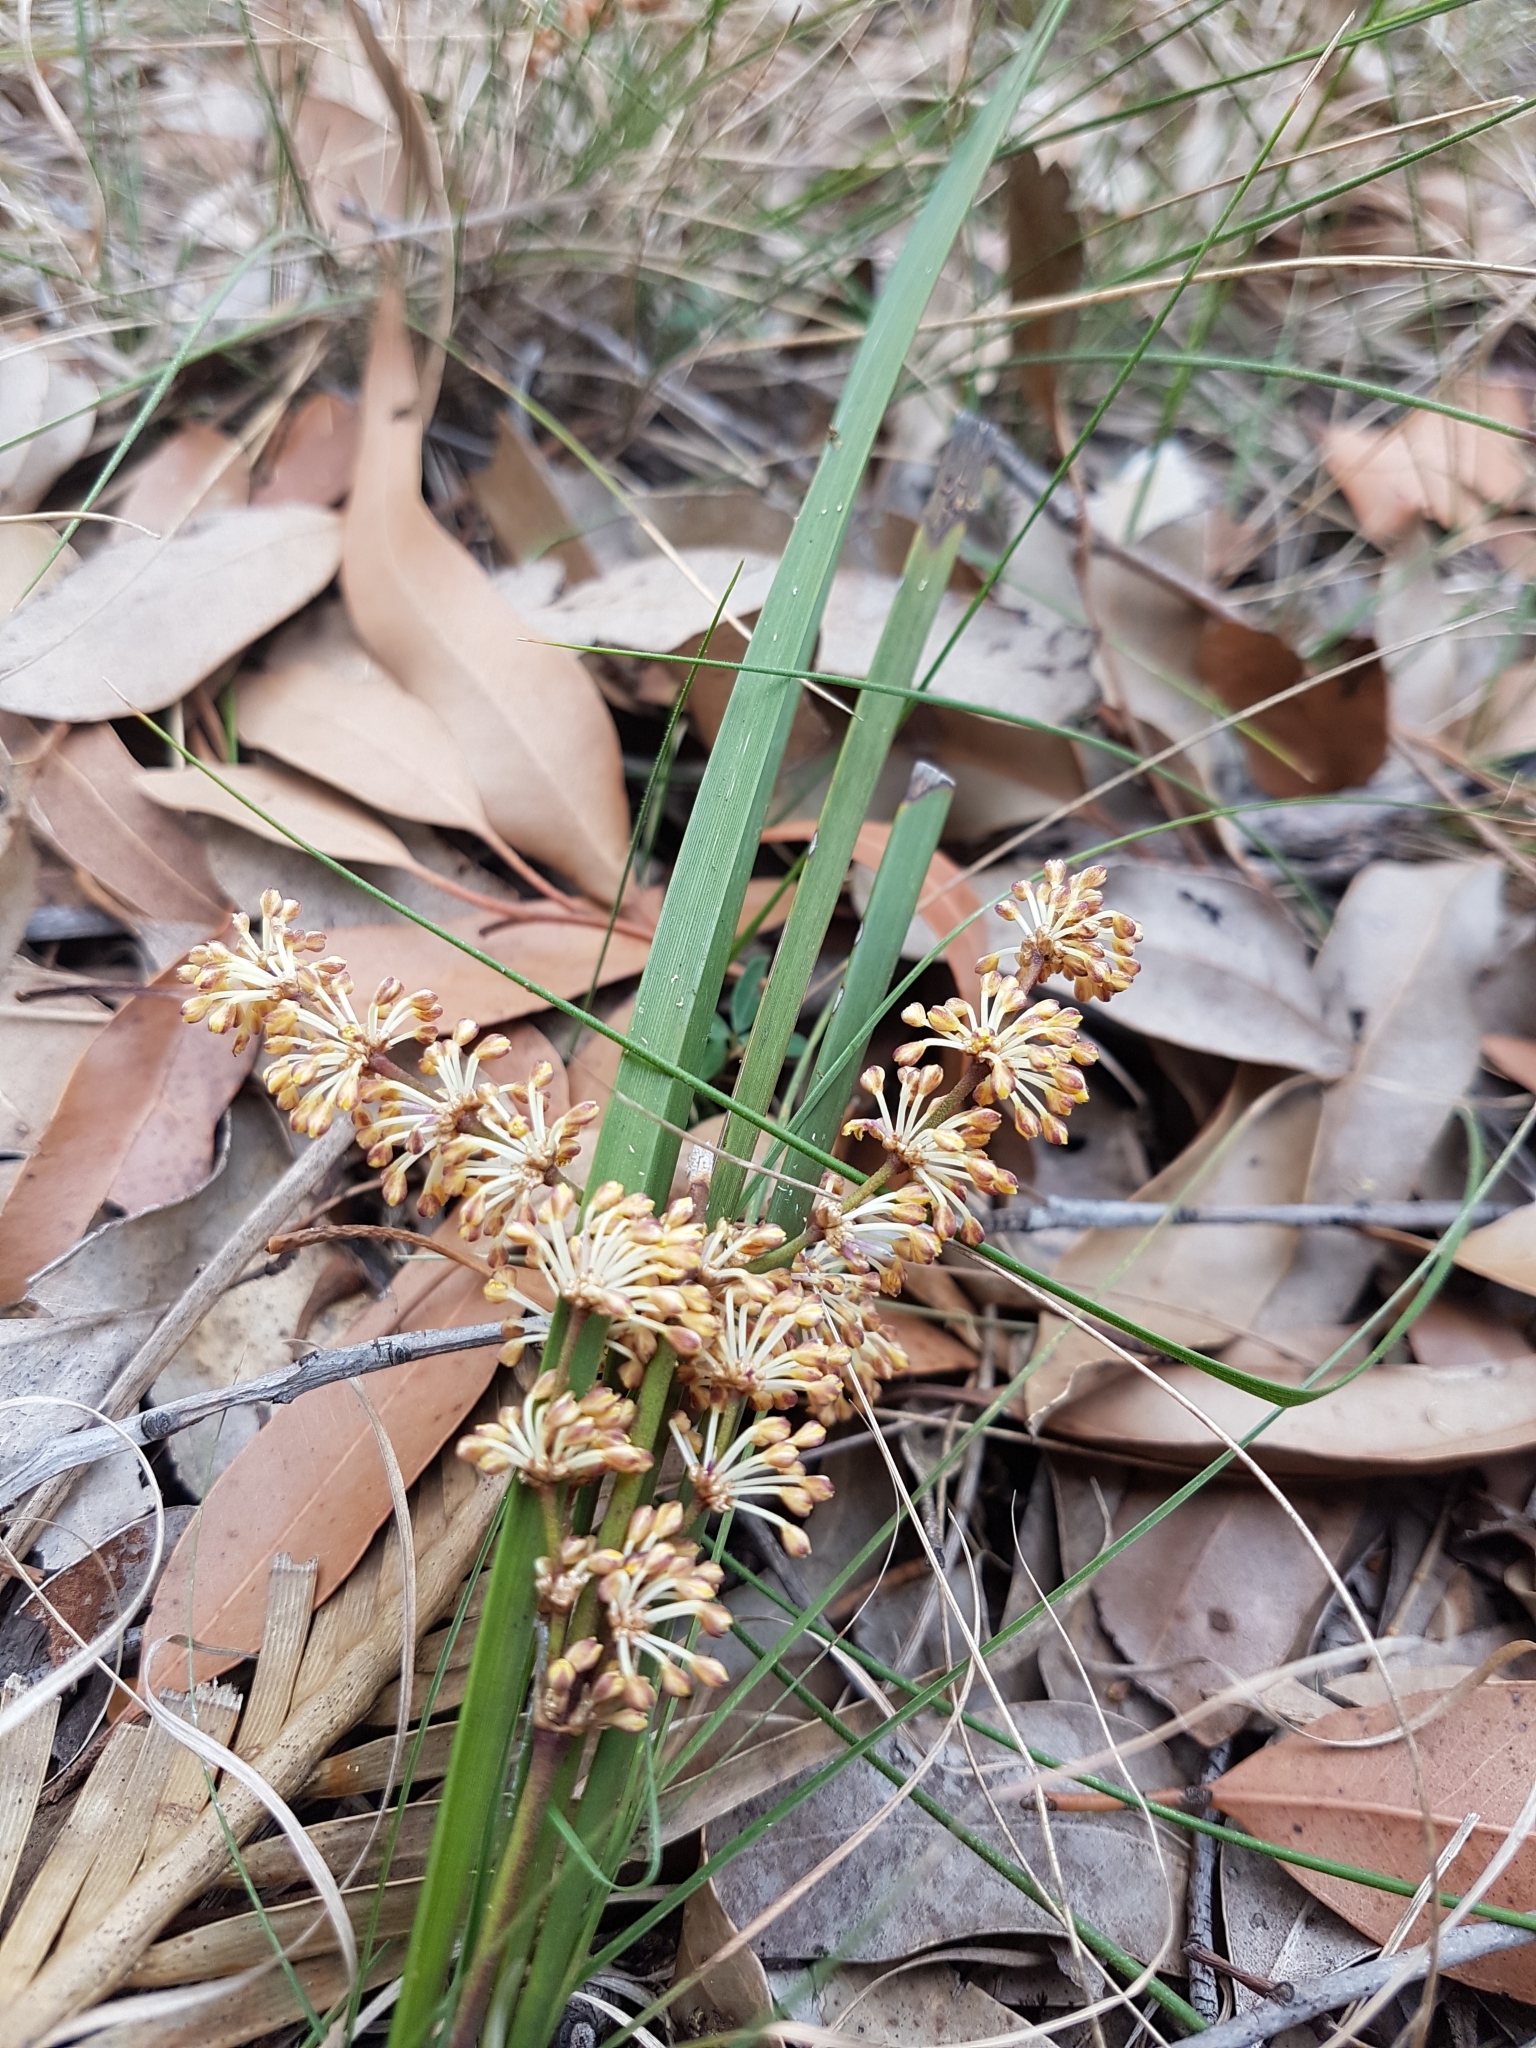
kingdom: Plantae
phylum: Tracheophyta
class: Liliopsida
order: Asparagales
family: Asparagaceae
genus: Lomandra
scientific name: Lomandra multiflora
